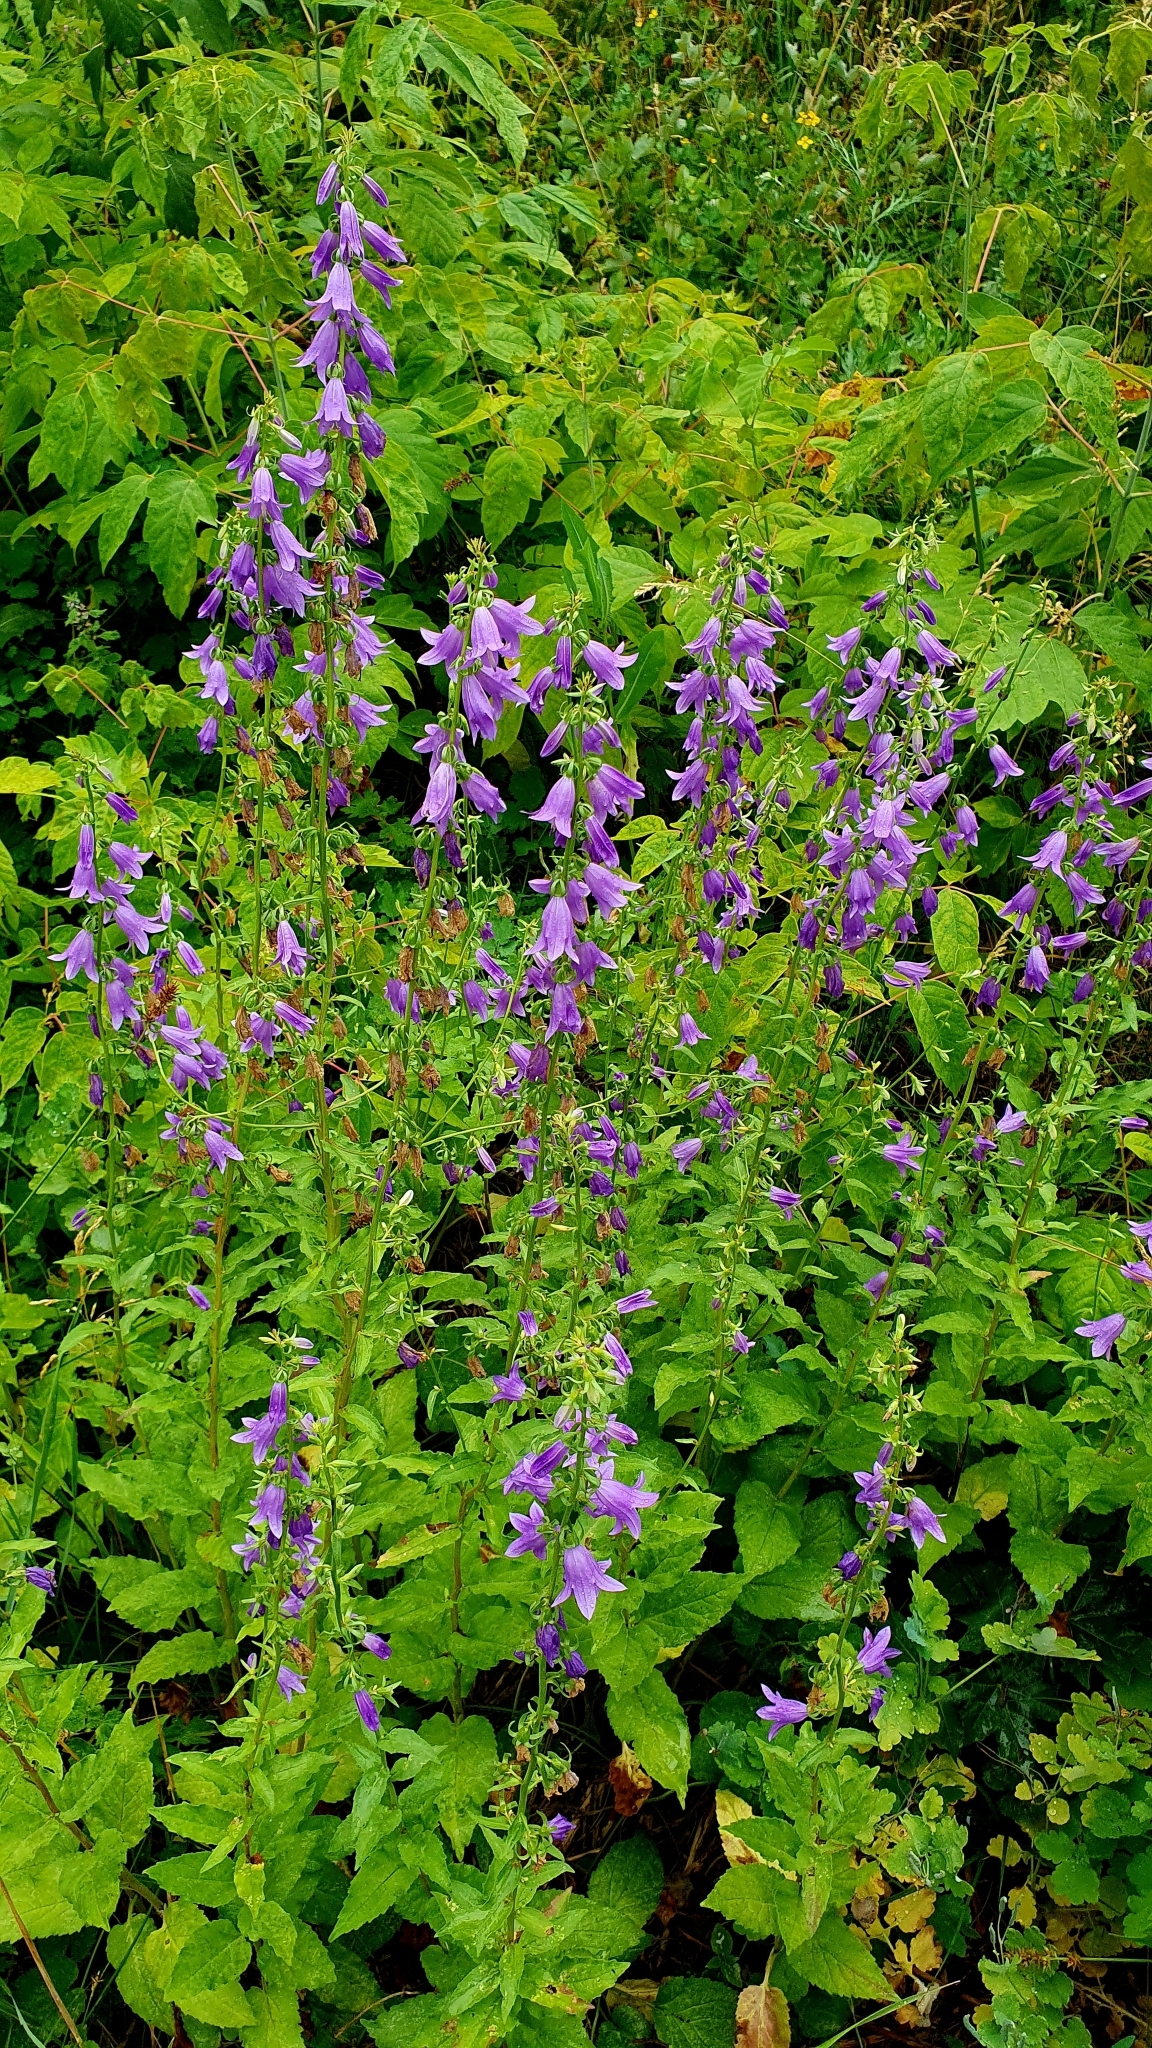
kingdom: Plantae
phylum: Tracheophyta
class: Magnoliopsida
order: Asterales
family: Campanulaceae
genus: Campanula
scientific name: Campanula rapunculoides
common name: Creeping bellflower
